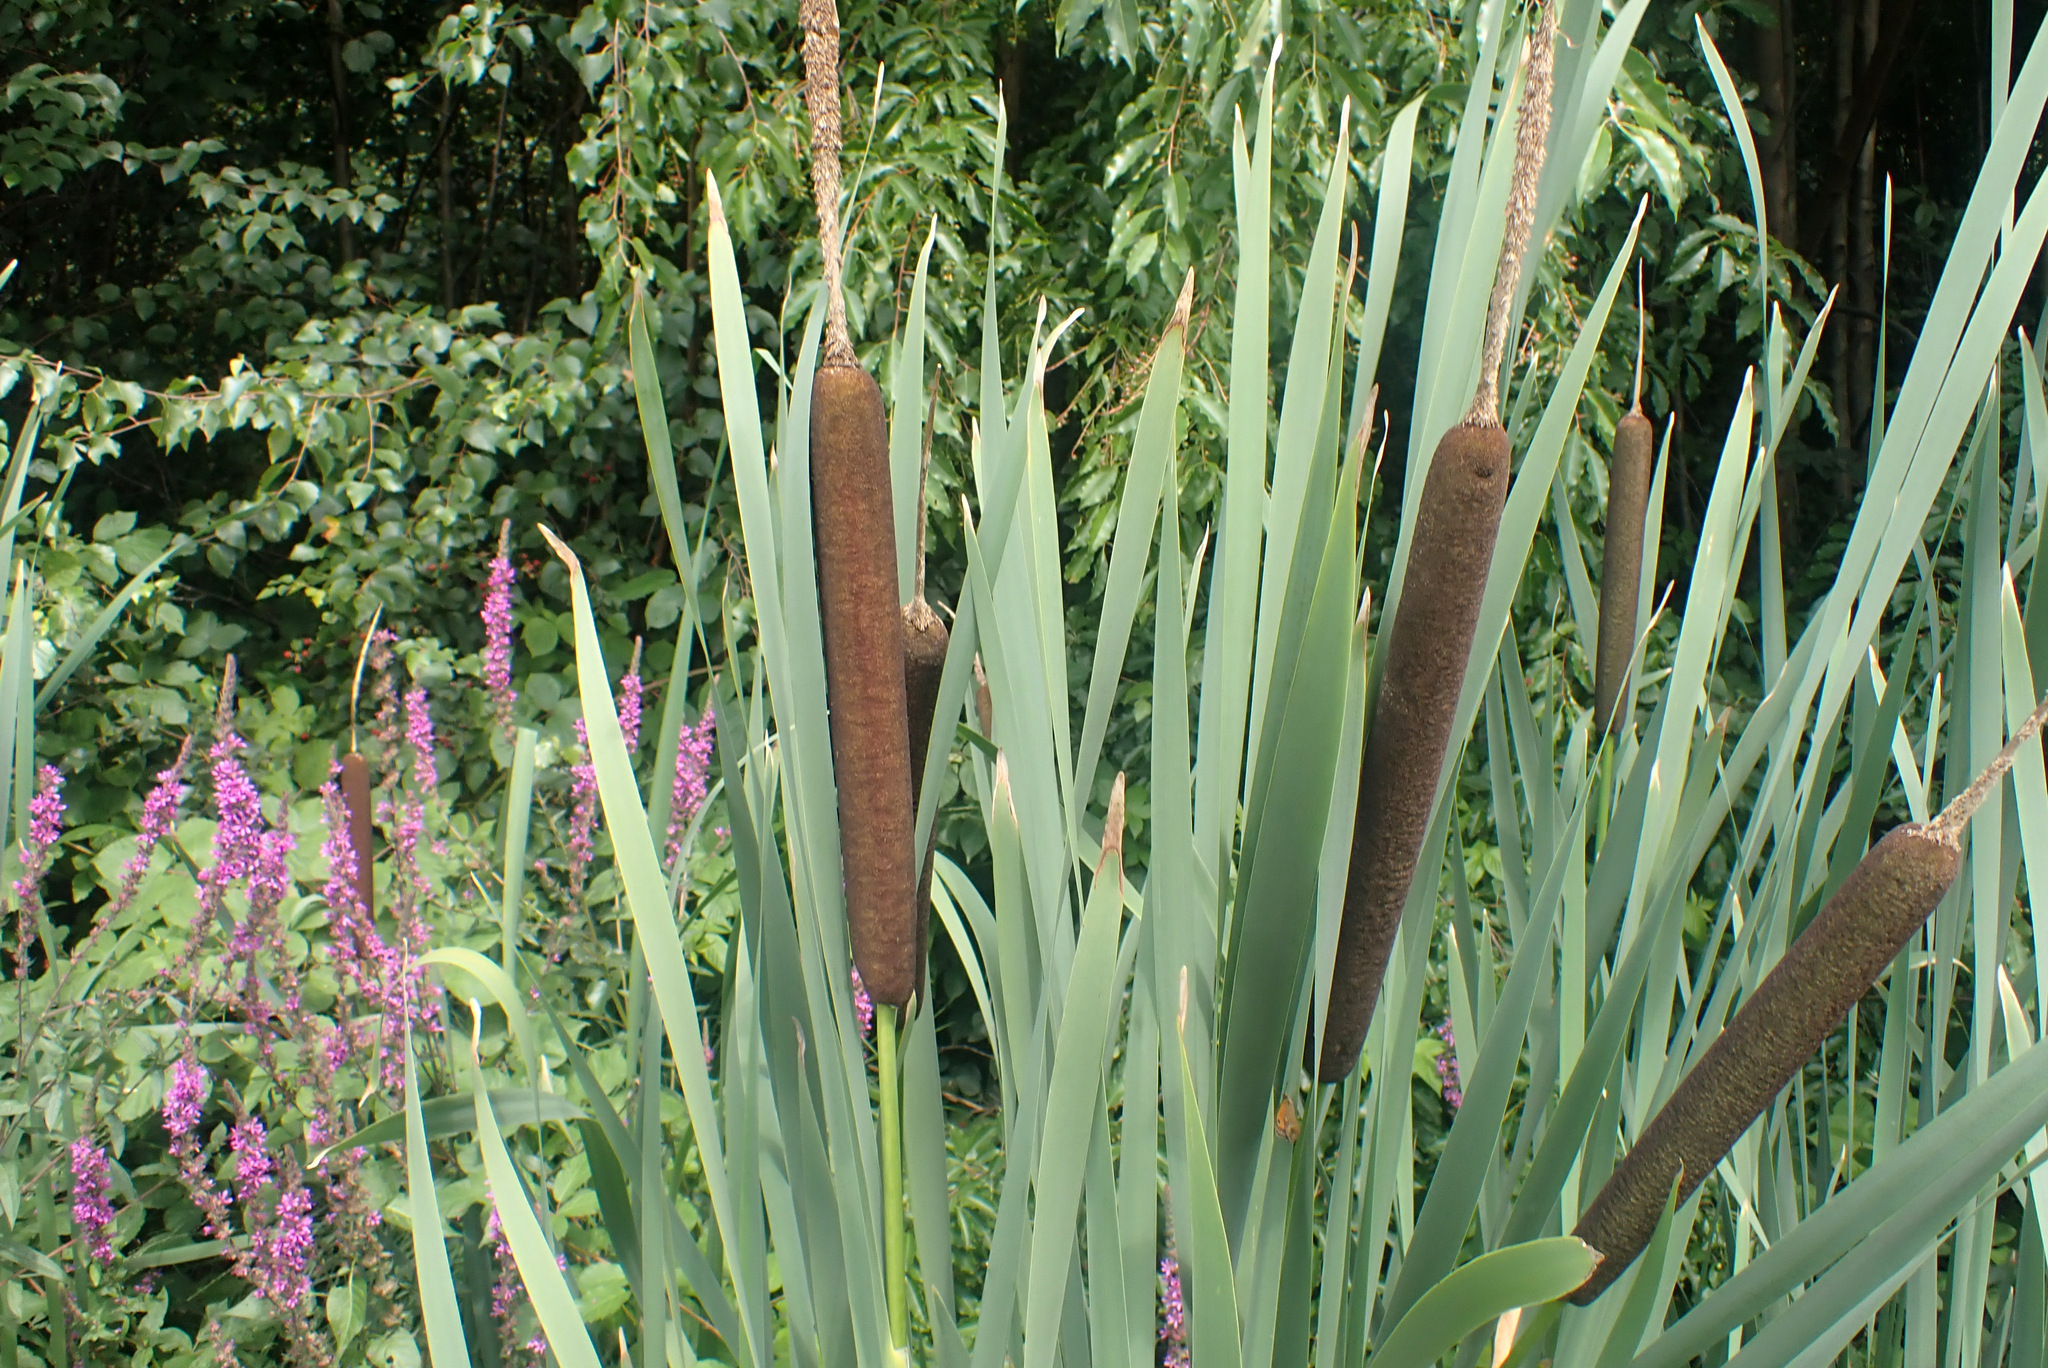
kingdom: Plantae
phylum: Tracheophyta
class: Liliopsida
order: Poales
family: Typhaceae
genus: Typha
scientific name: Typha latifolia
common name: Broadleaf cattail
